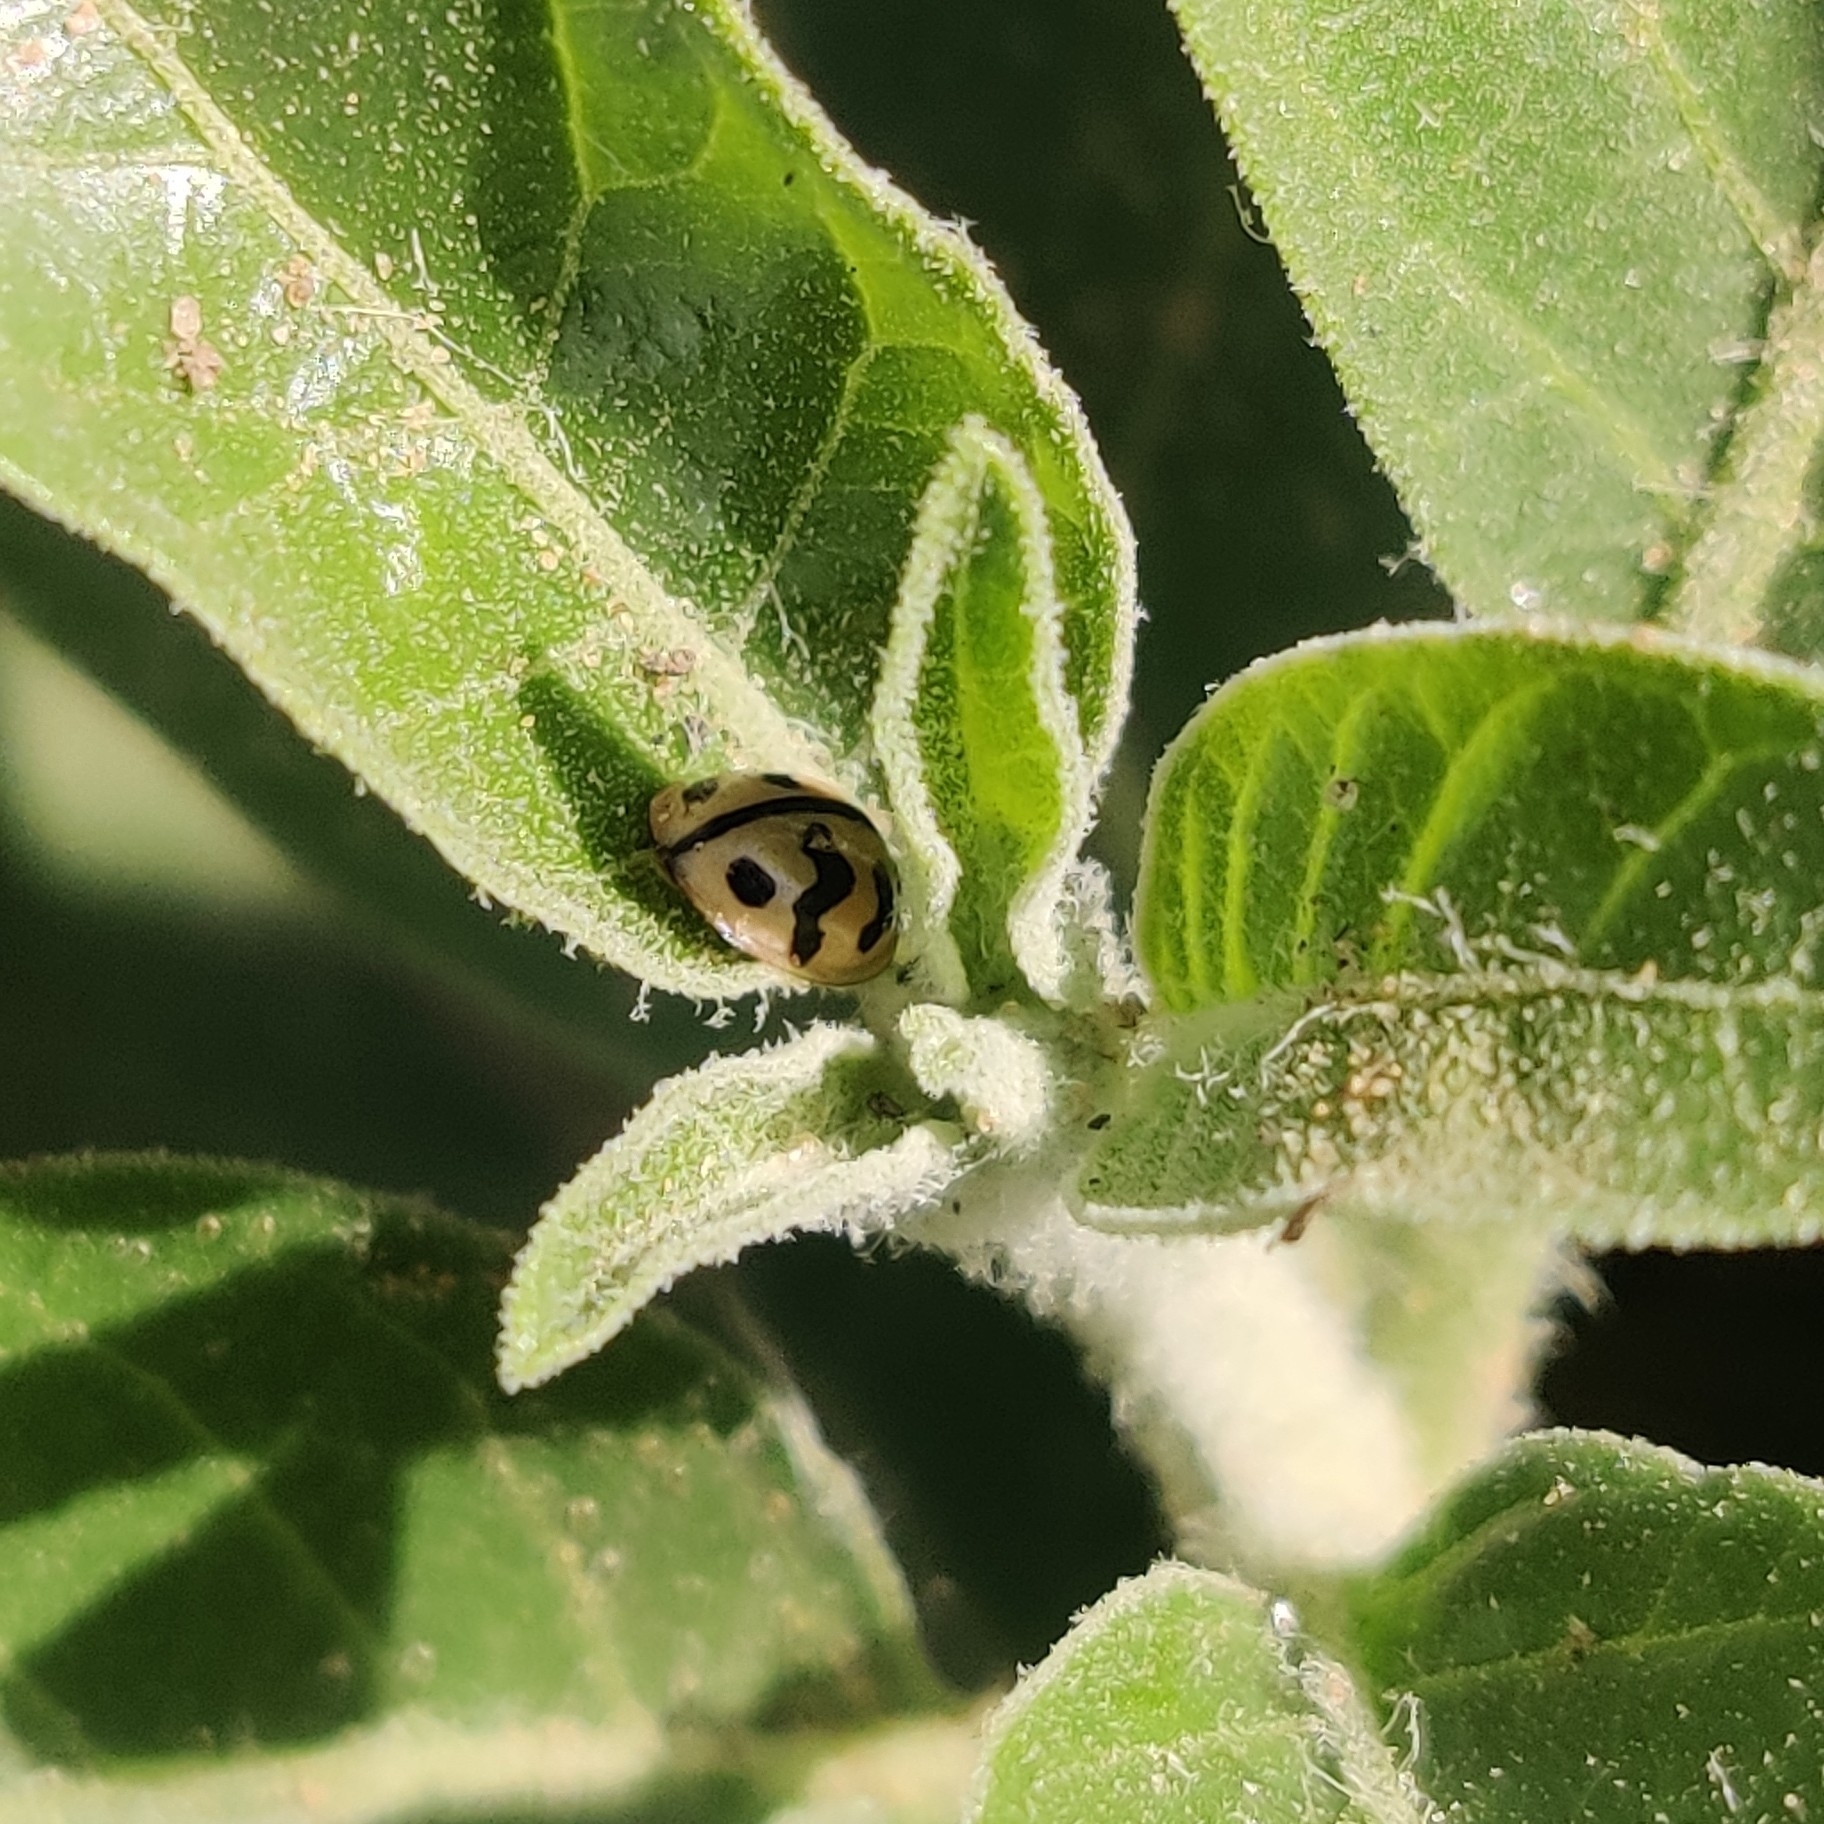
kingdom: Animalia
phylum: Arthropoda
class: Insecta
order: Coleoptera
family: Coccinellidae
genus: Cheilomenes
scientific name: Cheilomenes sexmaculata
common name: Ladybird beetle
